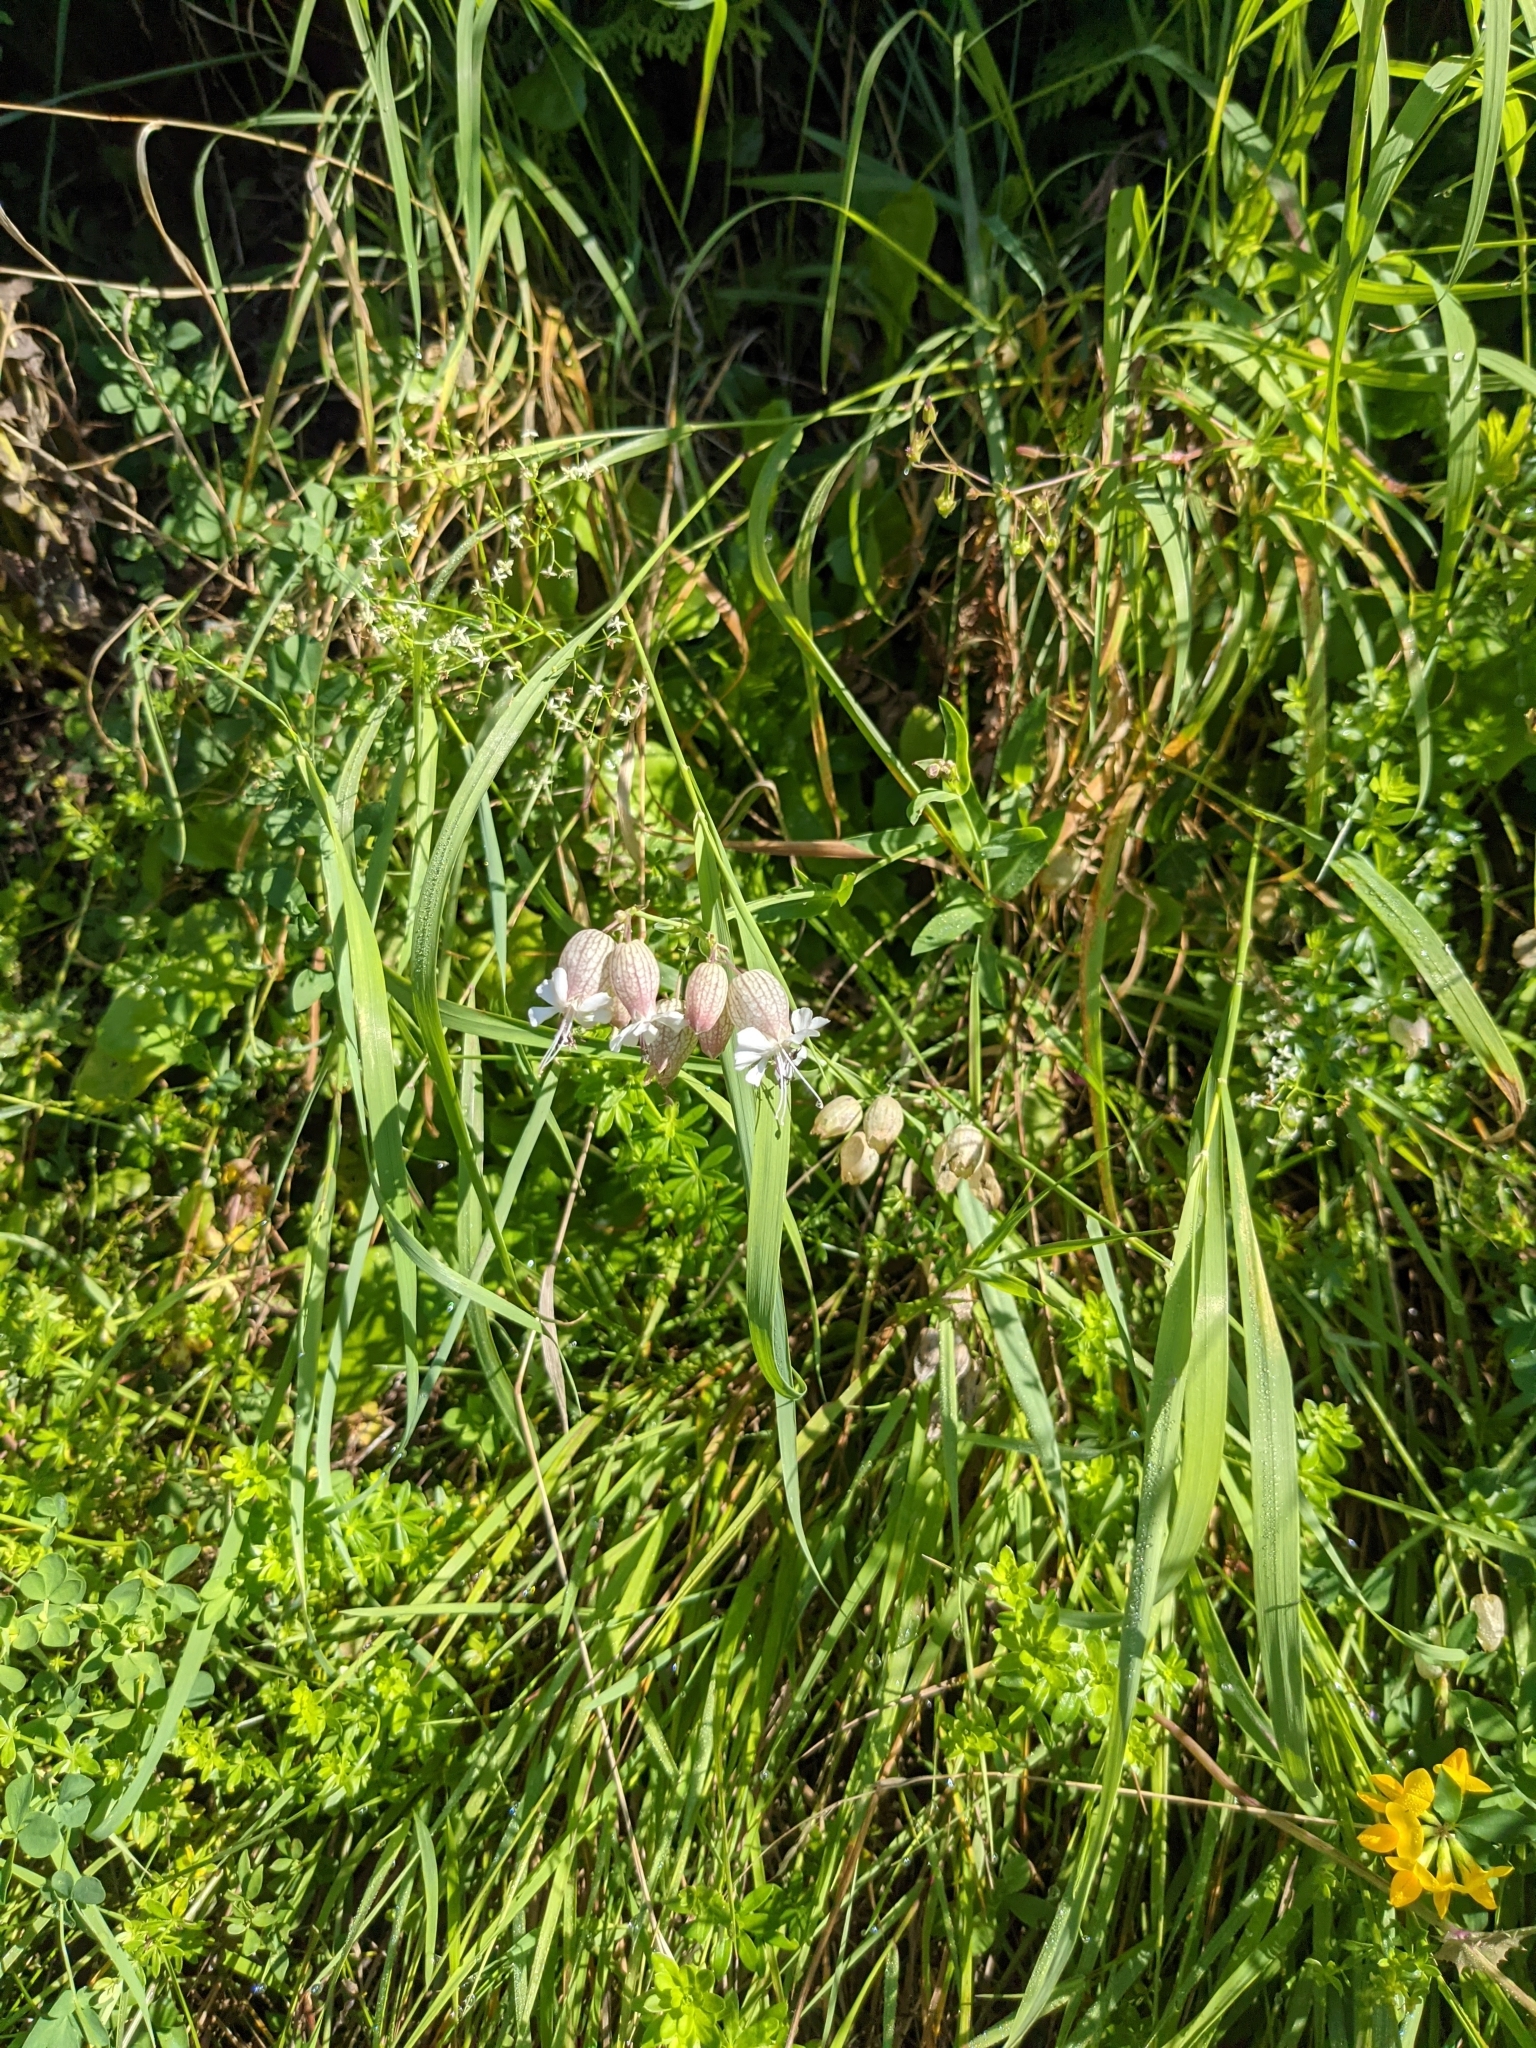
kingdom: Plantae
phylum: Tracheophyta
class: Magnoliopsida
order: Caryophyllales
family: Caryophyllaceae
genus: Silene
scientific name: Silene vulgaris
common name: Bladder campion
